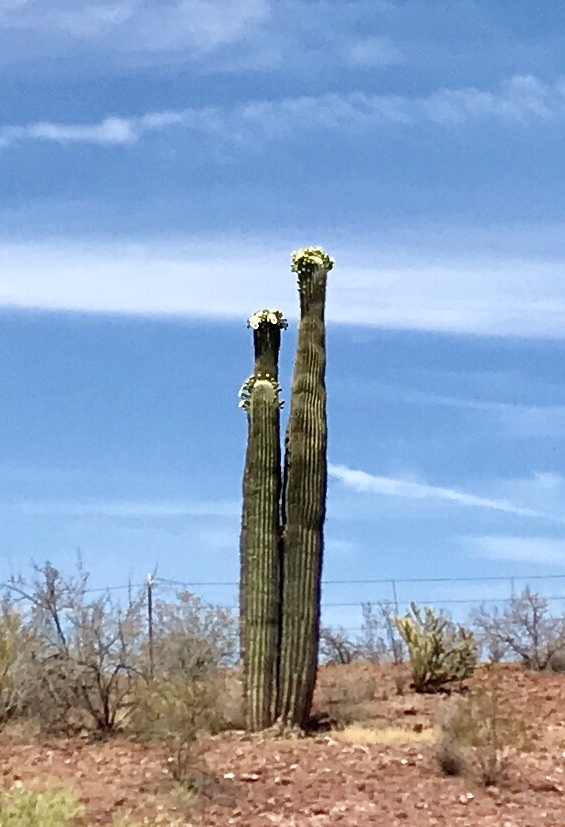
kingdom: Plantae
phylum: Tracheophyta
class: Magnoliopsida
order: Caryophyllales
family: Cactaceae
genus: Carnegiea
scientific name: Carnegiea gigantea
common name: Saguaro
